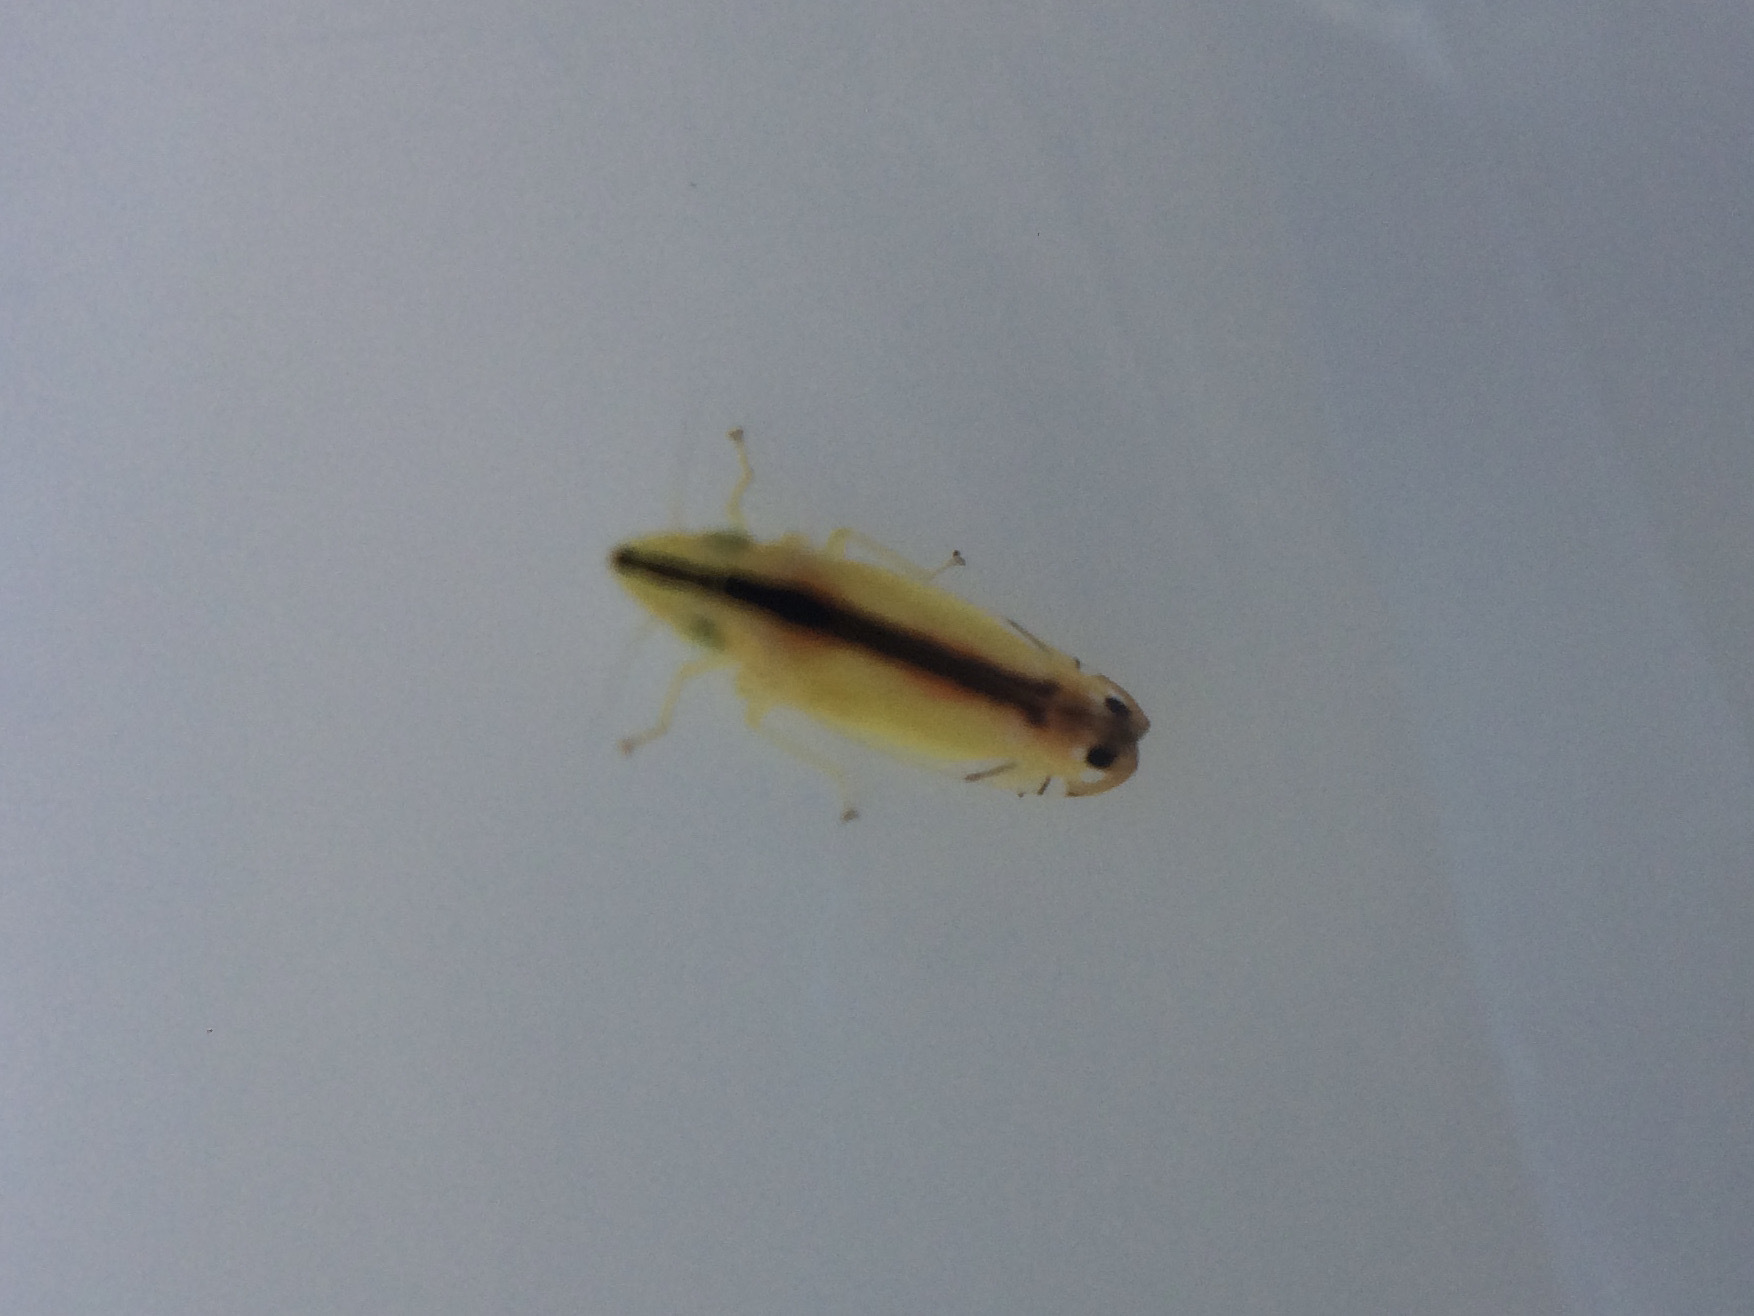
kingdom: Animalia
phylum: Arthropoda
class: Insecta
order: Hemiptera
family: Cicadellidae
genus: Sophonia
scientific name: Sophonia orientalis
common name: Two-spotted leafhopper
